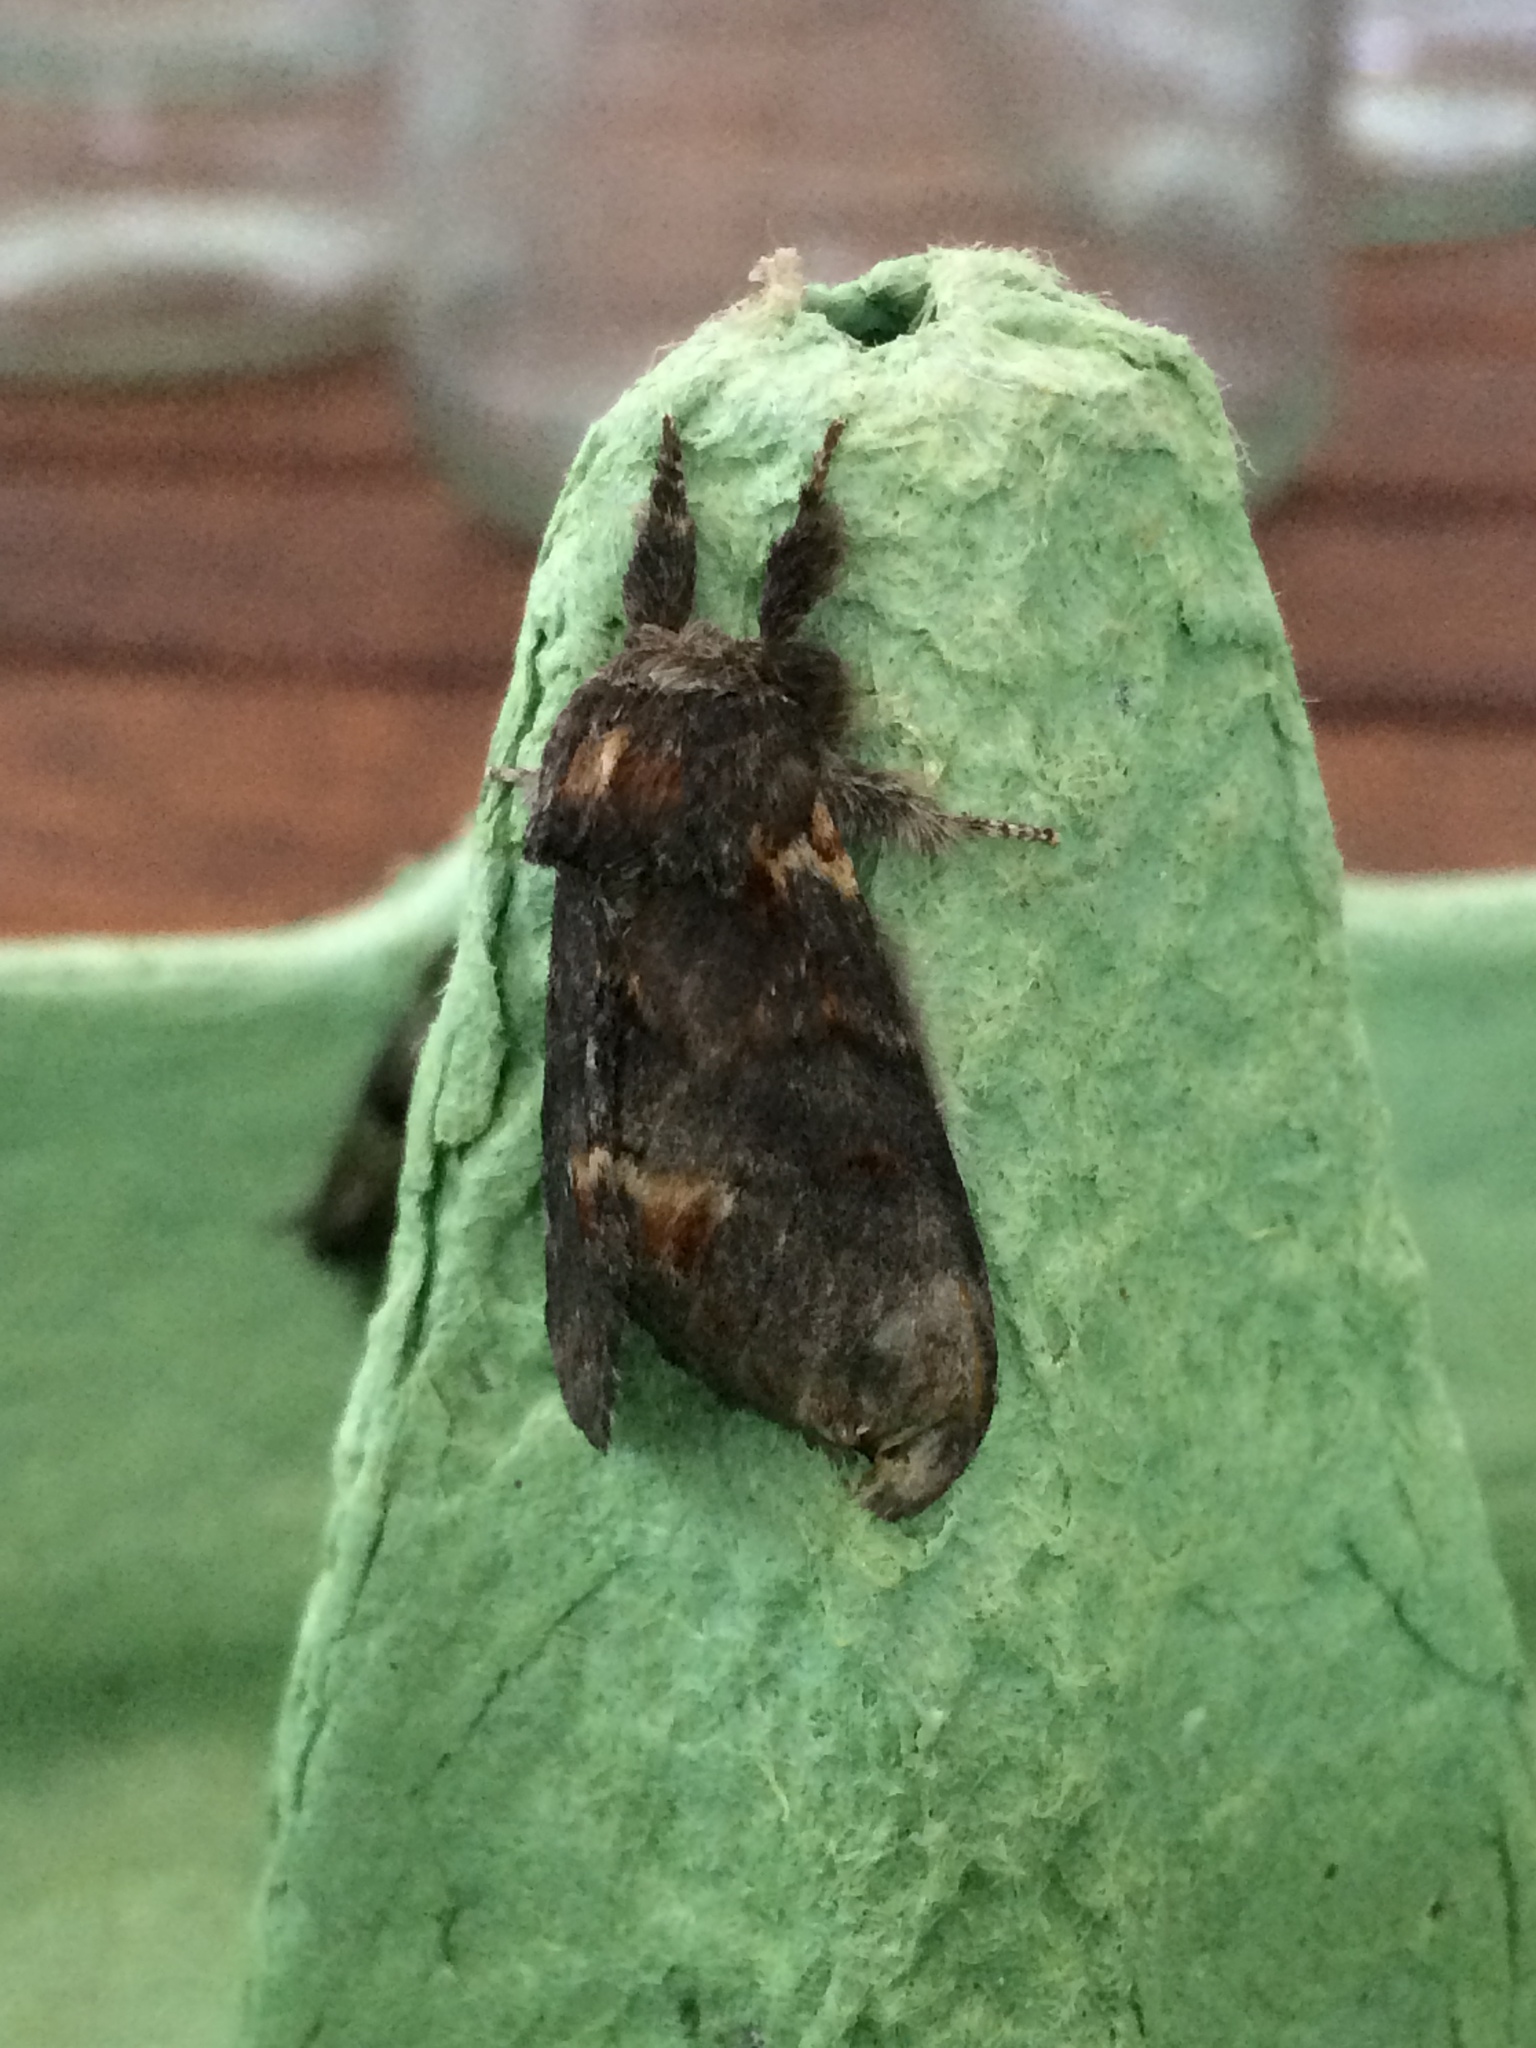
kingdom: Animalia
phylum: Arthropoda
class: Insecta
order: Lepidoptera
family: Notodontidae
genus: Notodonta
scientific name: Notodonta dromedarius
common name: Iron prominent
